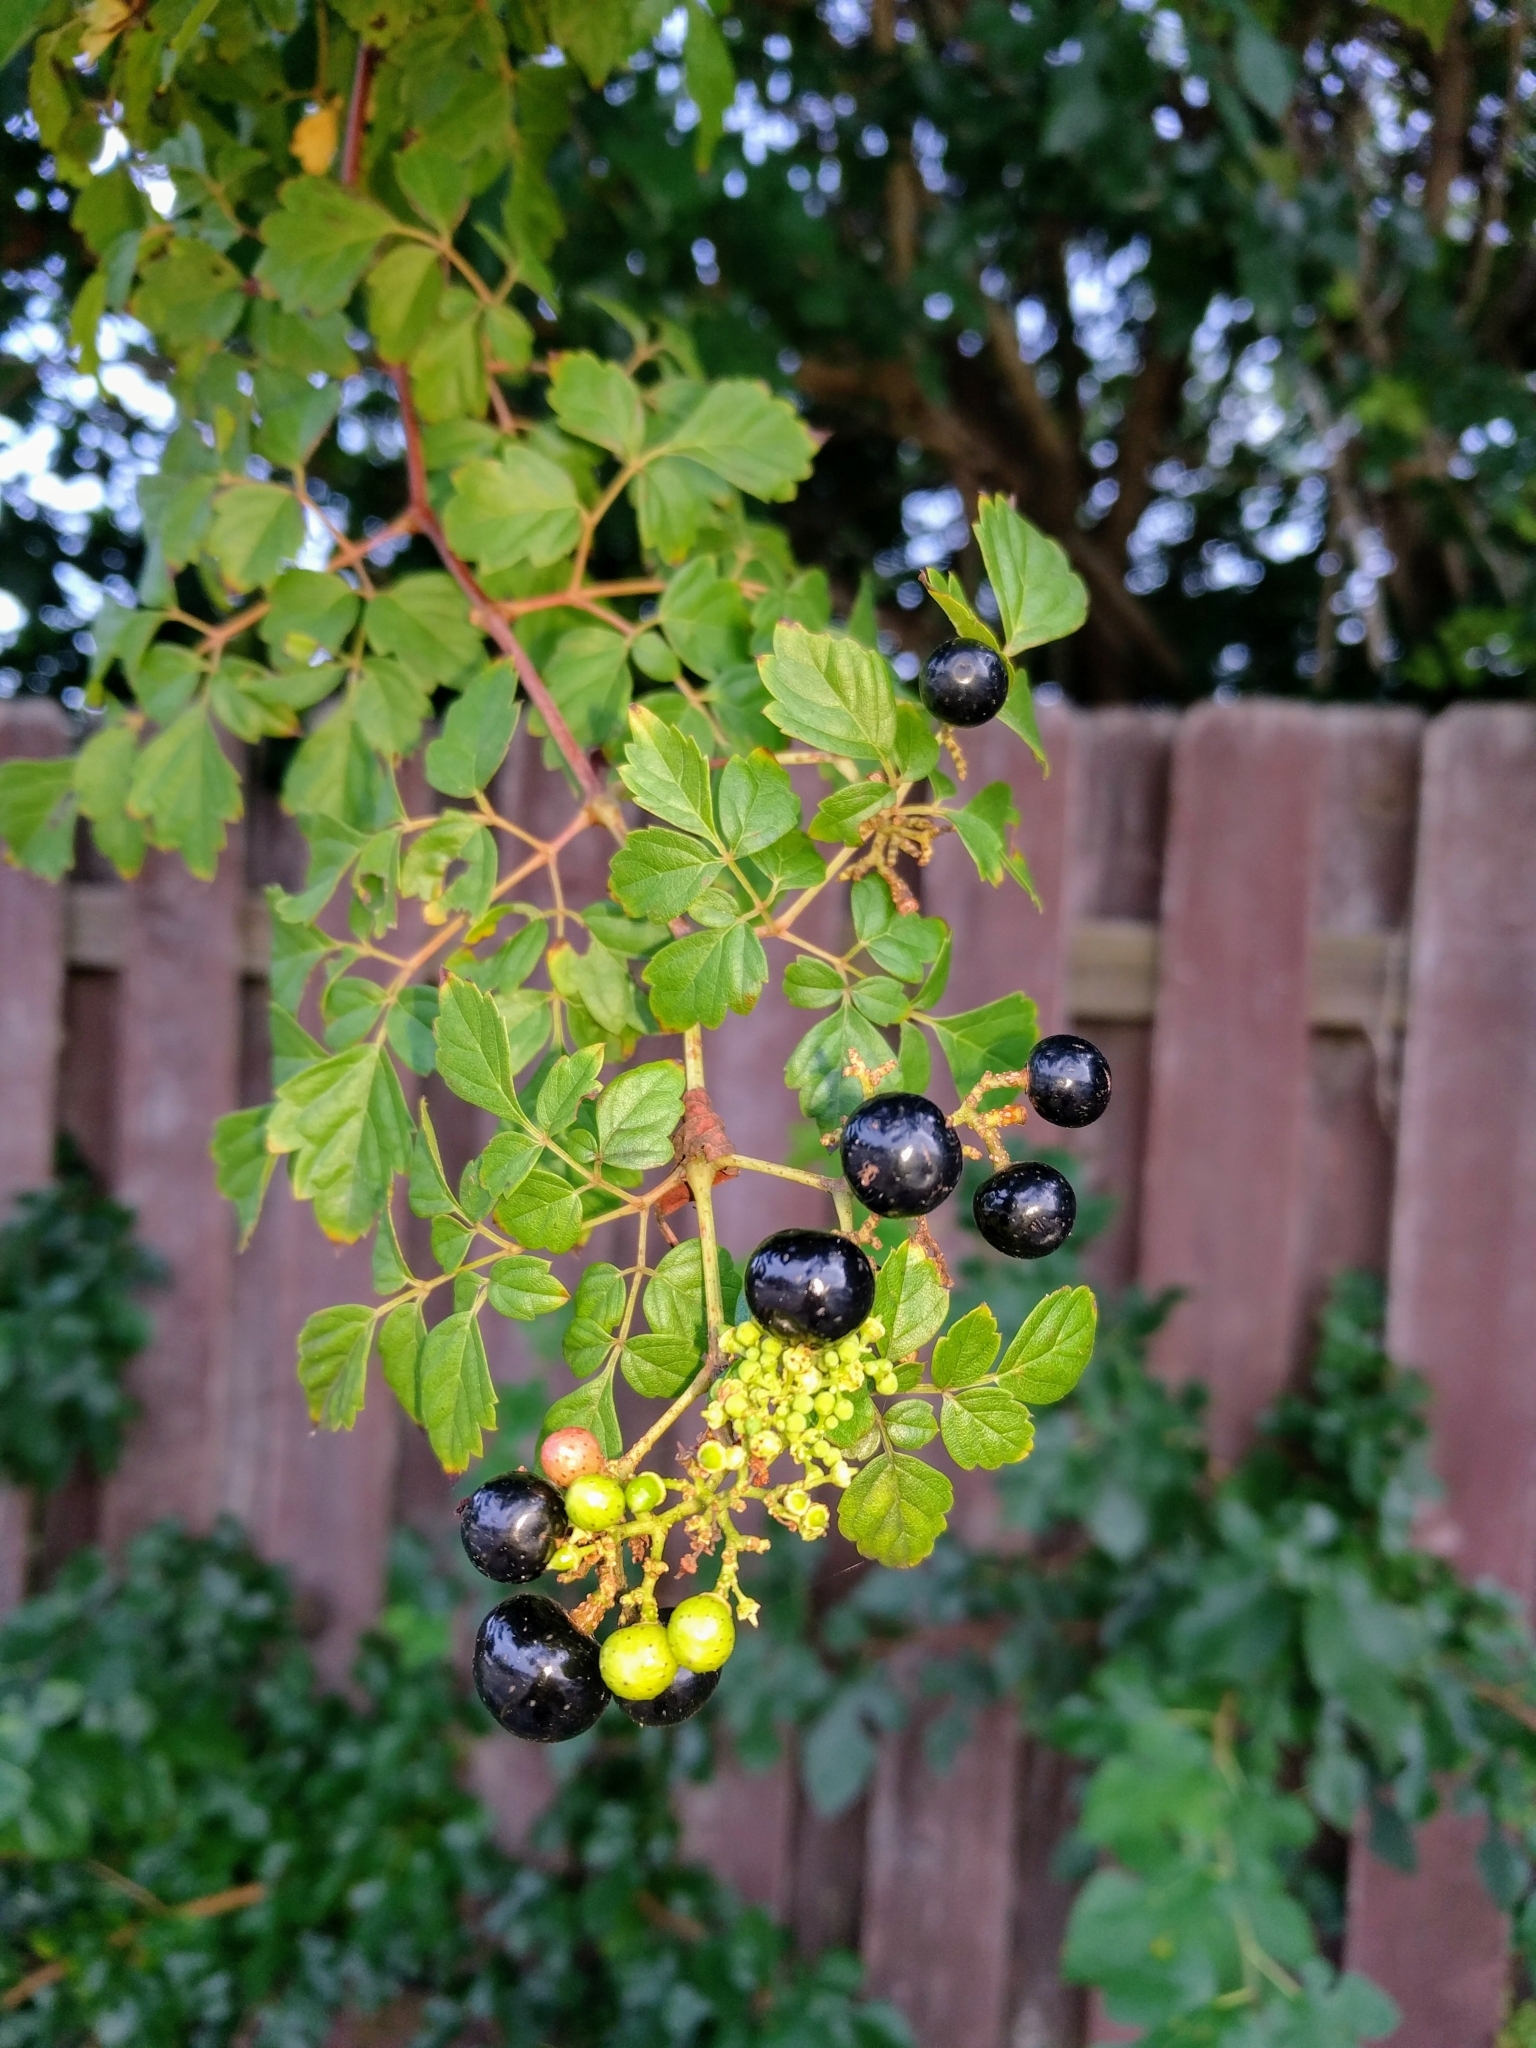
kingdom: Plantae
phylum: Tracheophyta
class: Magnoliopsida
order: Vitales
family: Vitaceae
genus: Nekemias
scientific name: Nekemias arborea
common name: Peppervine
